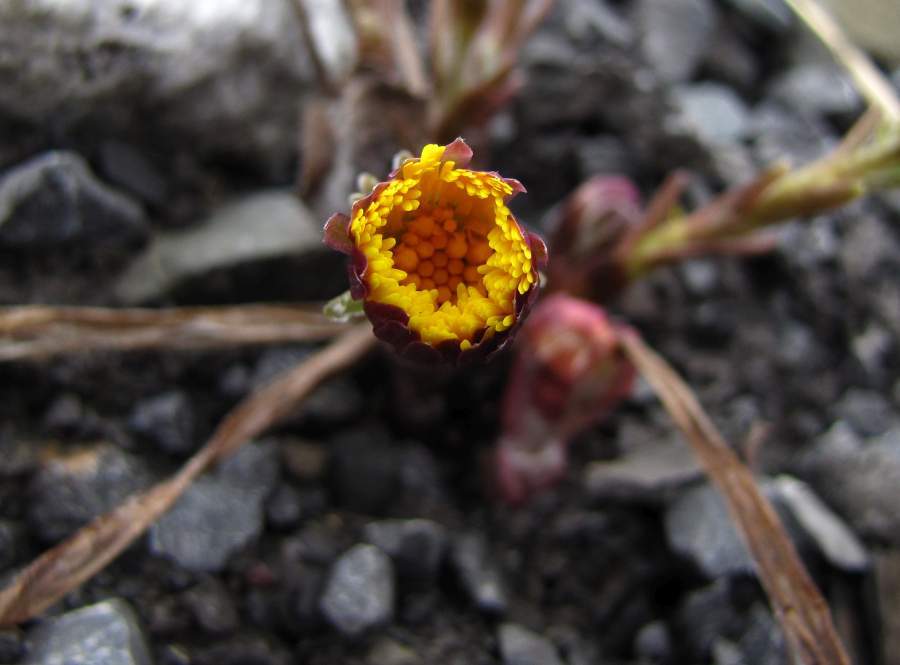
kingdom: Plantae
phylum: Tracheophyta
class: Magnoliopsida
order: Asterales
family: Asteraceae
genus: Tussilago
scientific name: Tussilago farfara
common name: Coltsfoot
